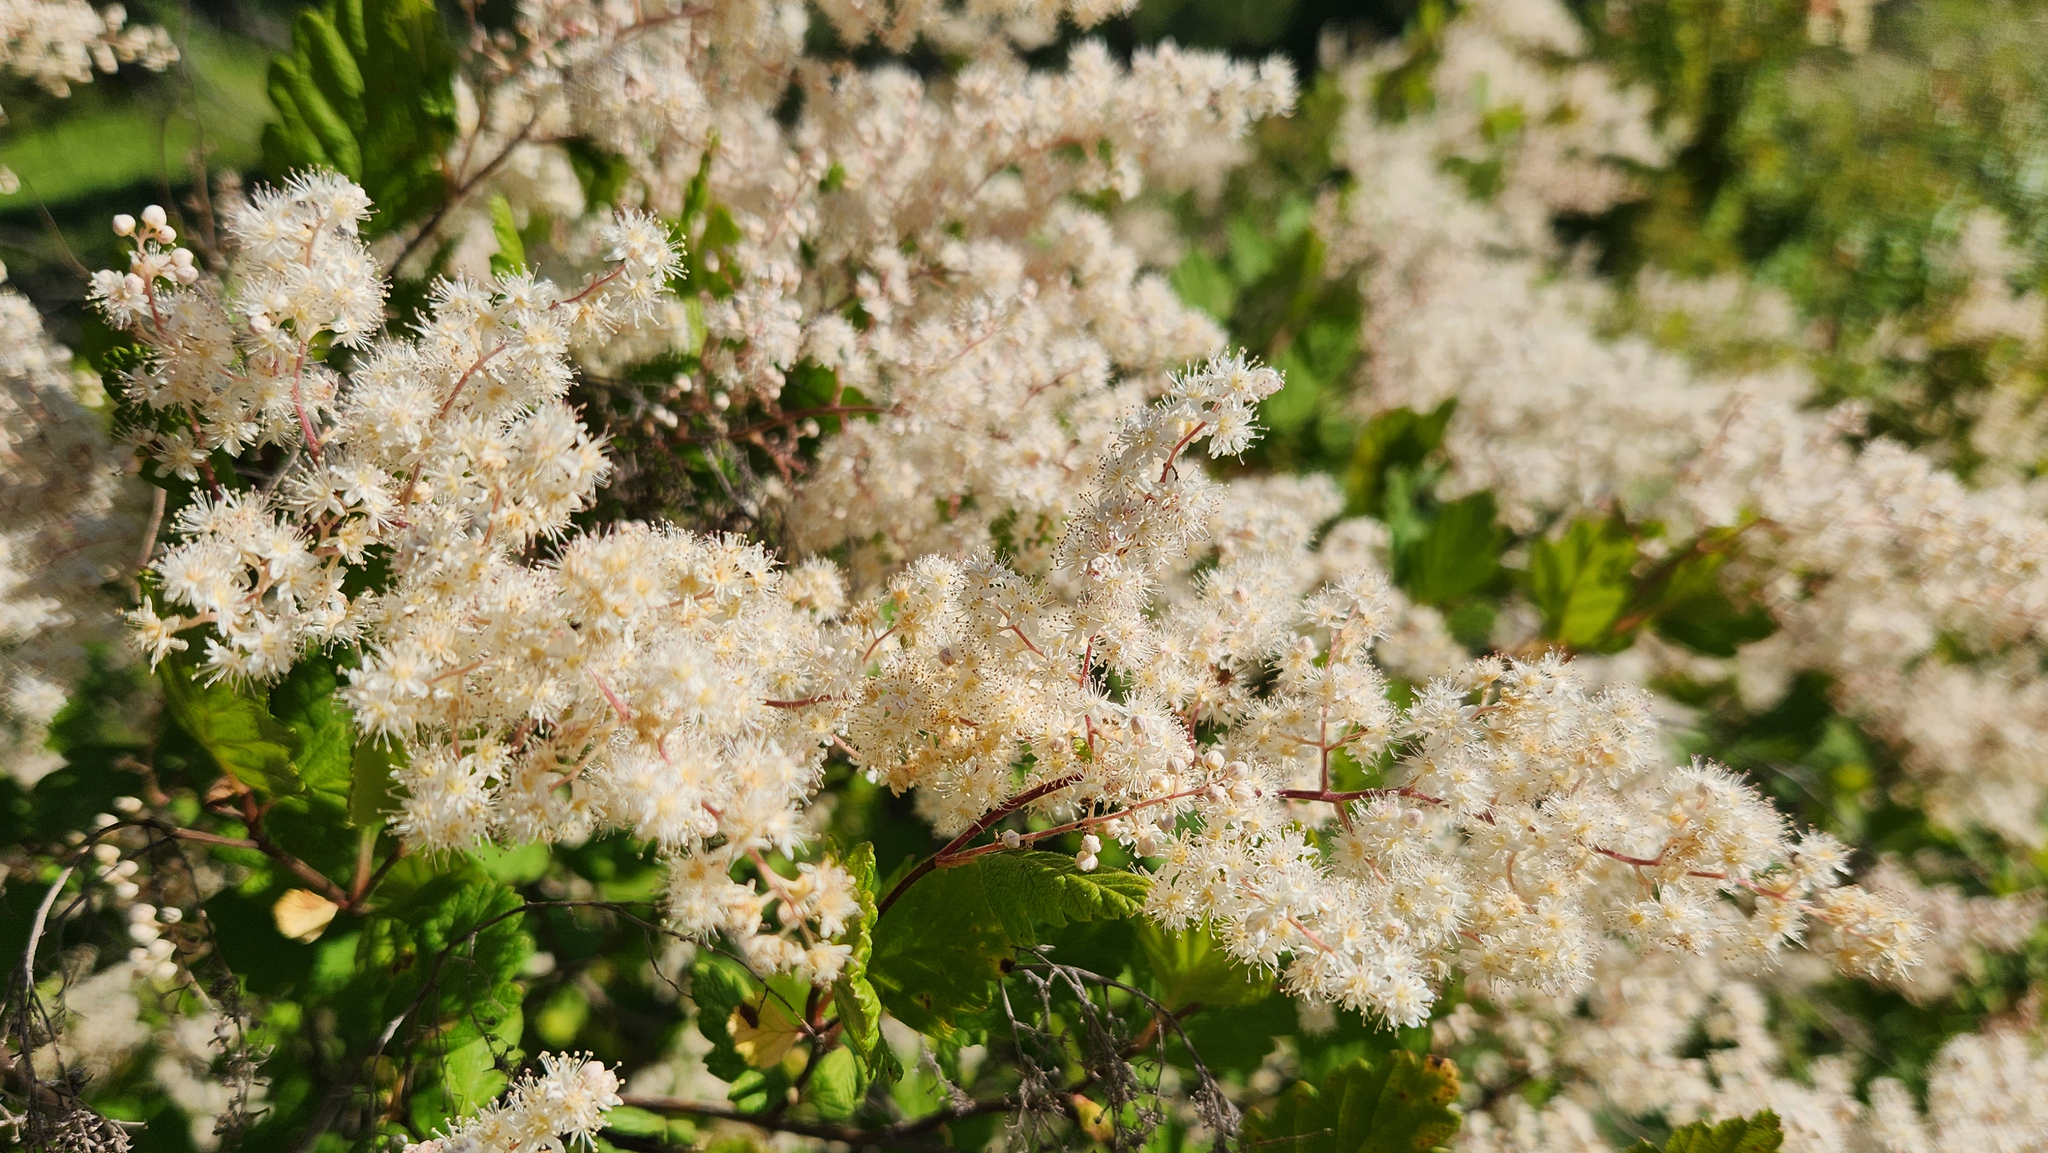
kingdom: Plantae
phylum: Tracheophyta
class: Magnoliopsida
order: Rosales
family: Rosaceae
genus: Holodiscus
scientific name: Holodiscus discolor
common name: Oceanspray
